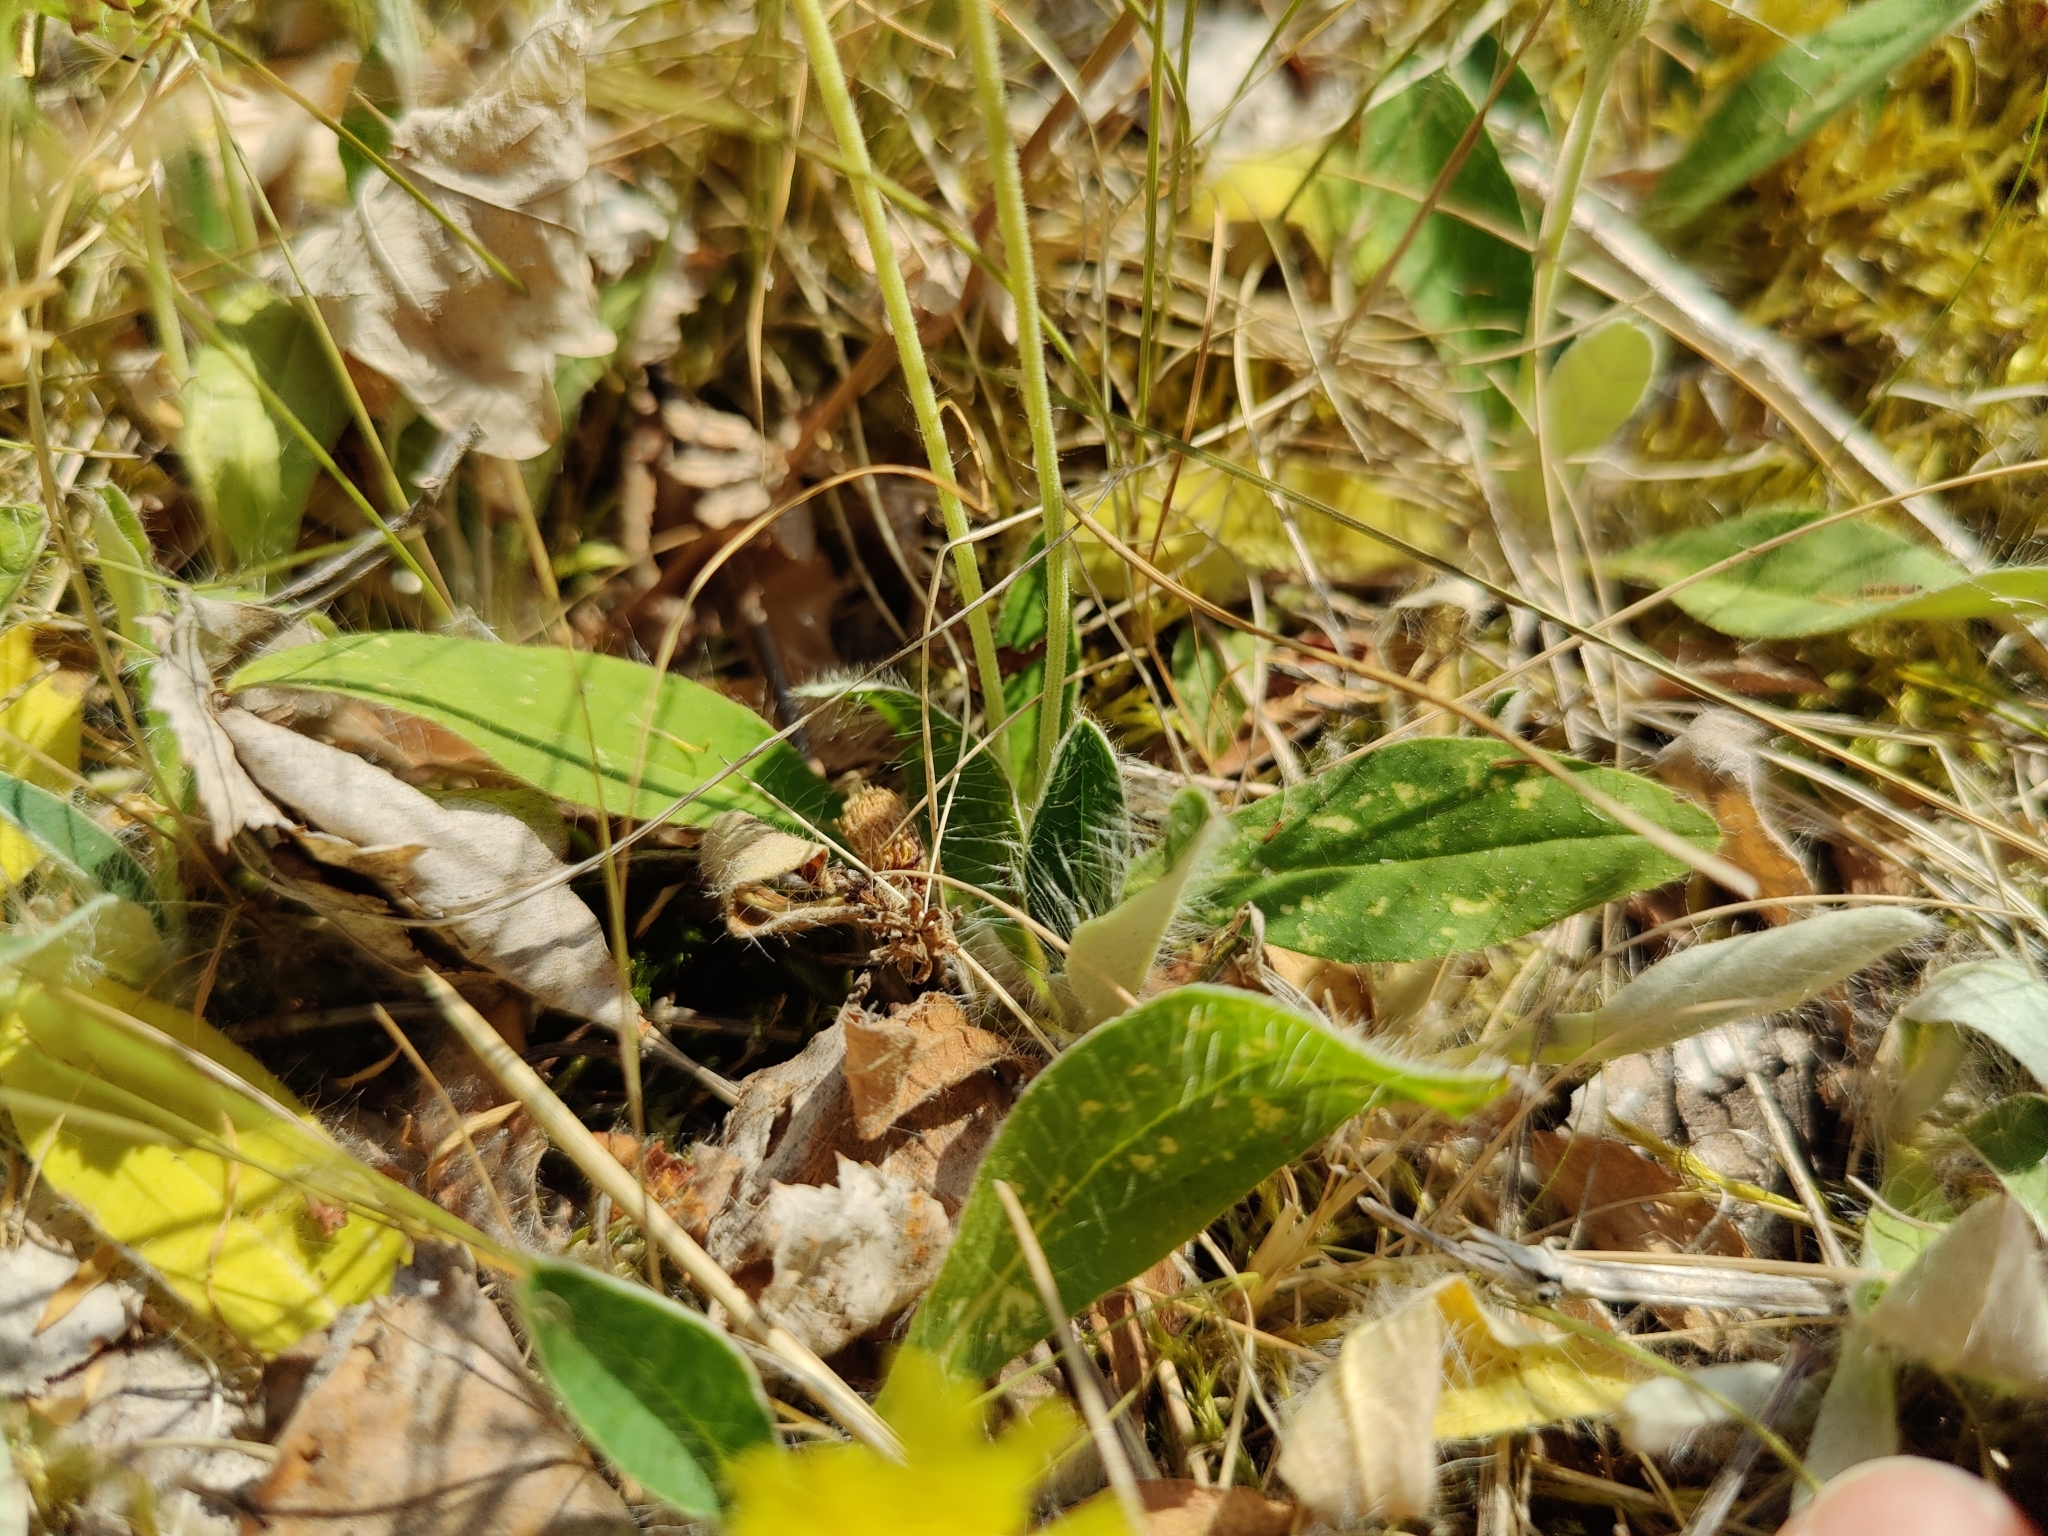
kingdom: Plantae
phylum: Tracheophyta
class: Magnoliopsida
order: Asterales
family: Asteraceae
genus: Pilosella
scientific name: Pilosella officinarum
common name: Mouse-ear hawkweed
